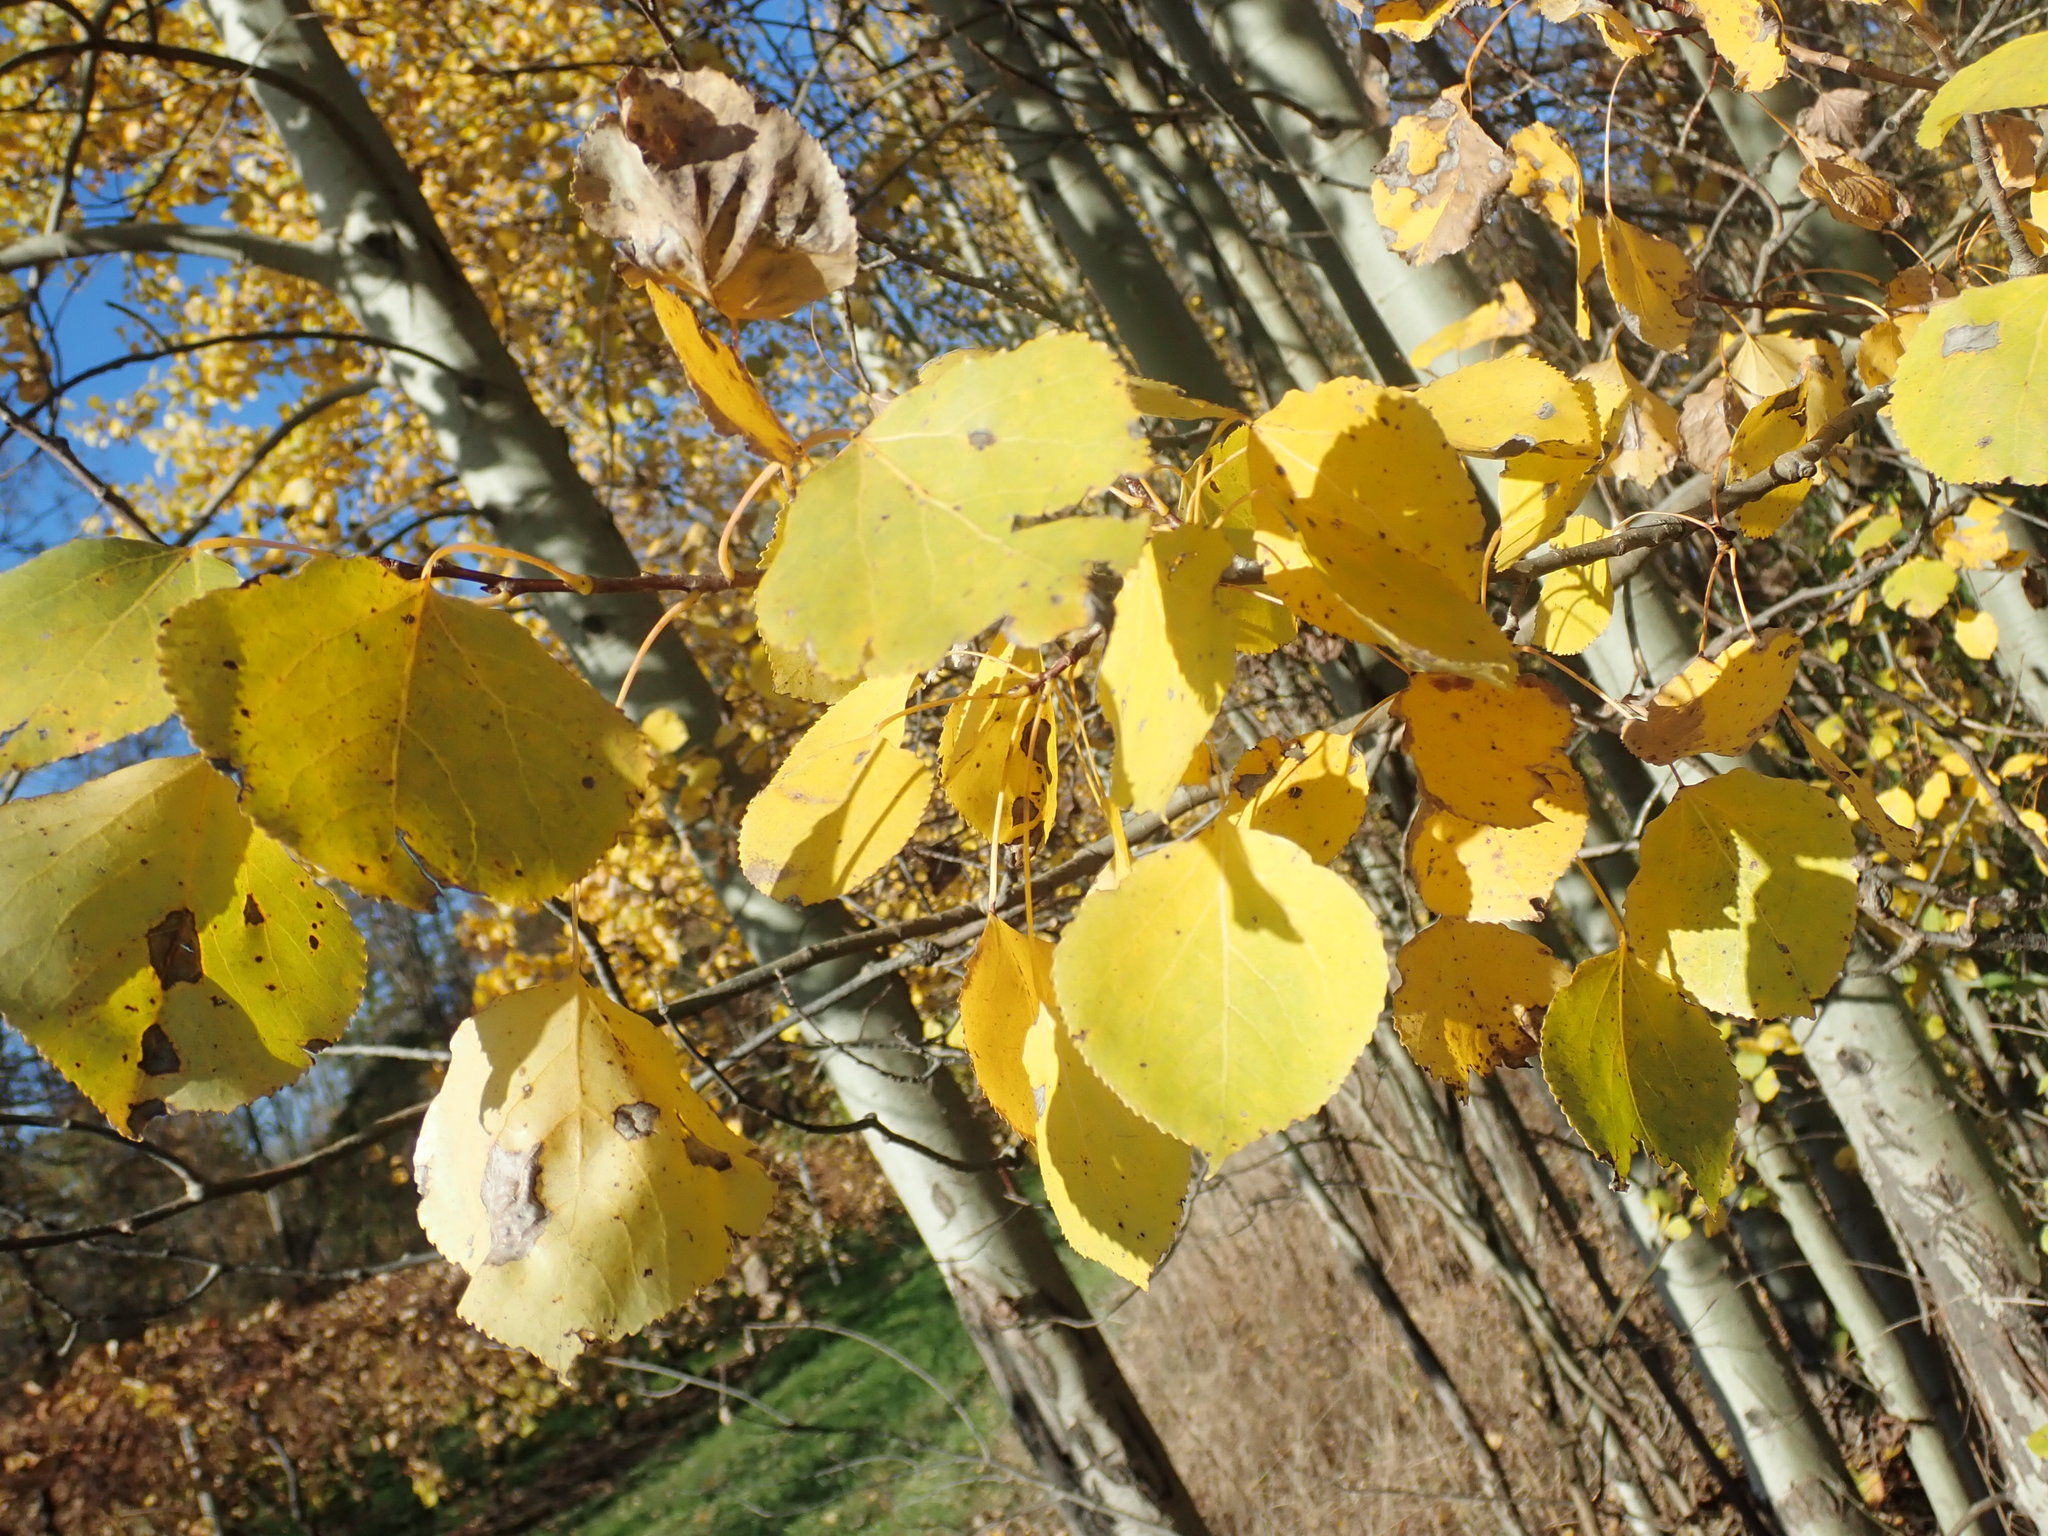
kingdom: Plantae
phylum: Tracheophyta
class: Magnoliopsida
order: Malpighiales
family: Salicaceae
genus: Populus
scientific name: Populus tremuloides
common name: Quaking aspen
